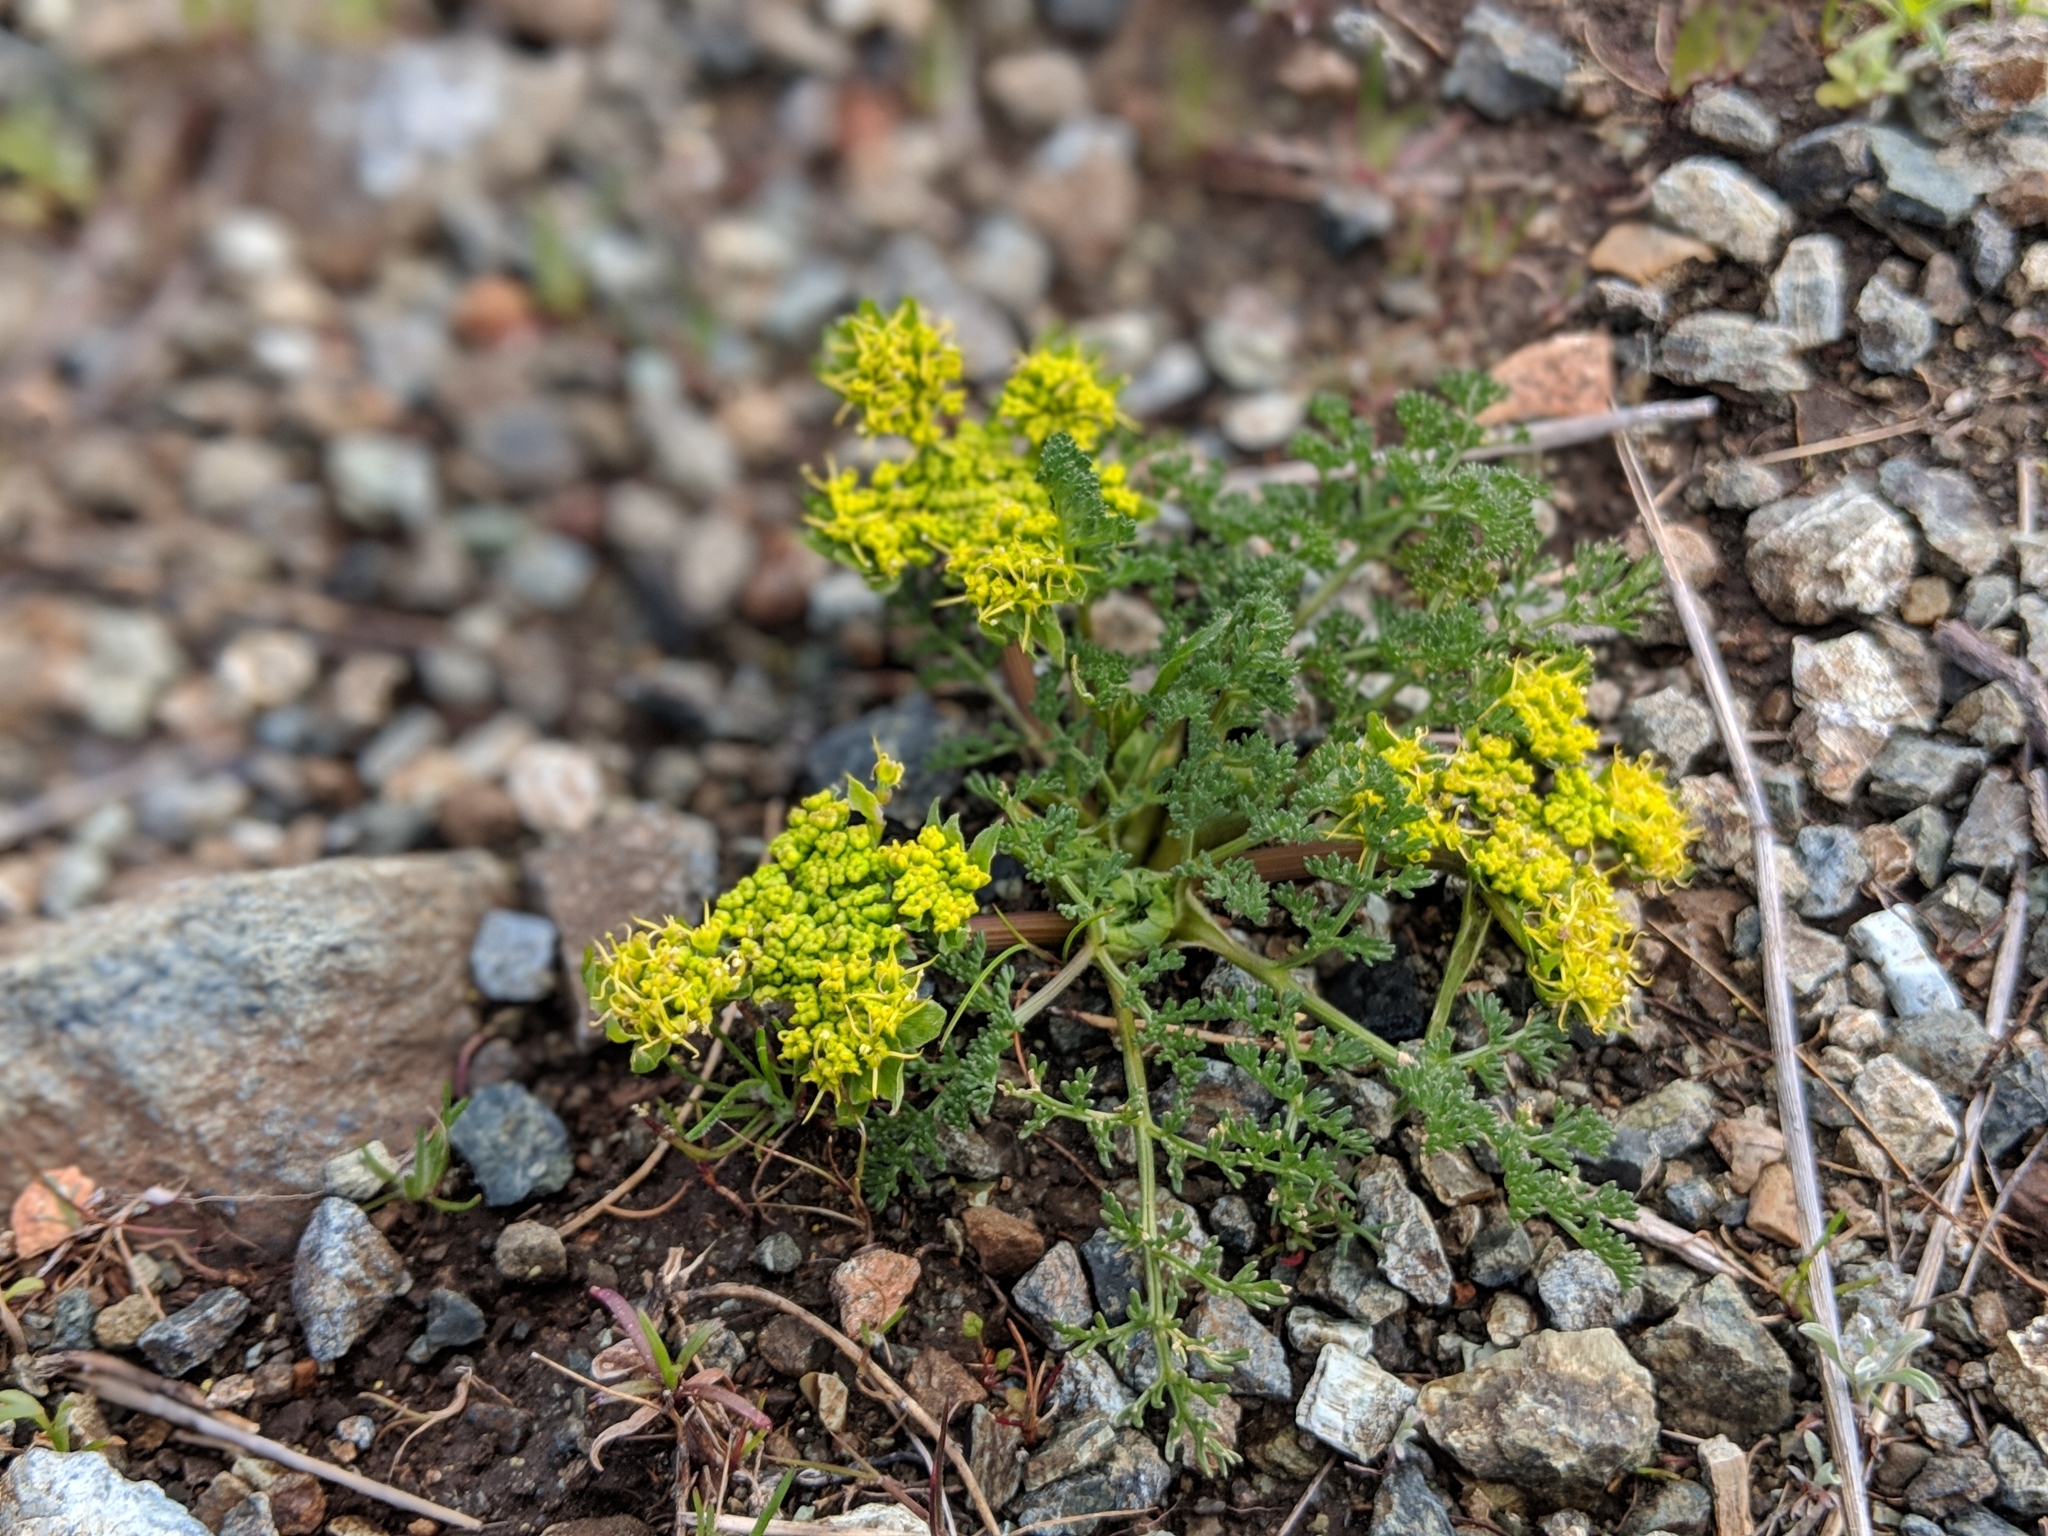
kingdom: Plantae
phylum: Tracheophyta
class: Magnoliopsida
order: Apiales
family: Apiaceae
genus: Lomatium
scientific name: Lomatium utriculatum
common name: Fine-leaf desert-parsley
